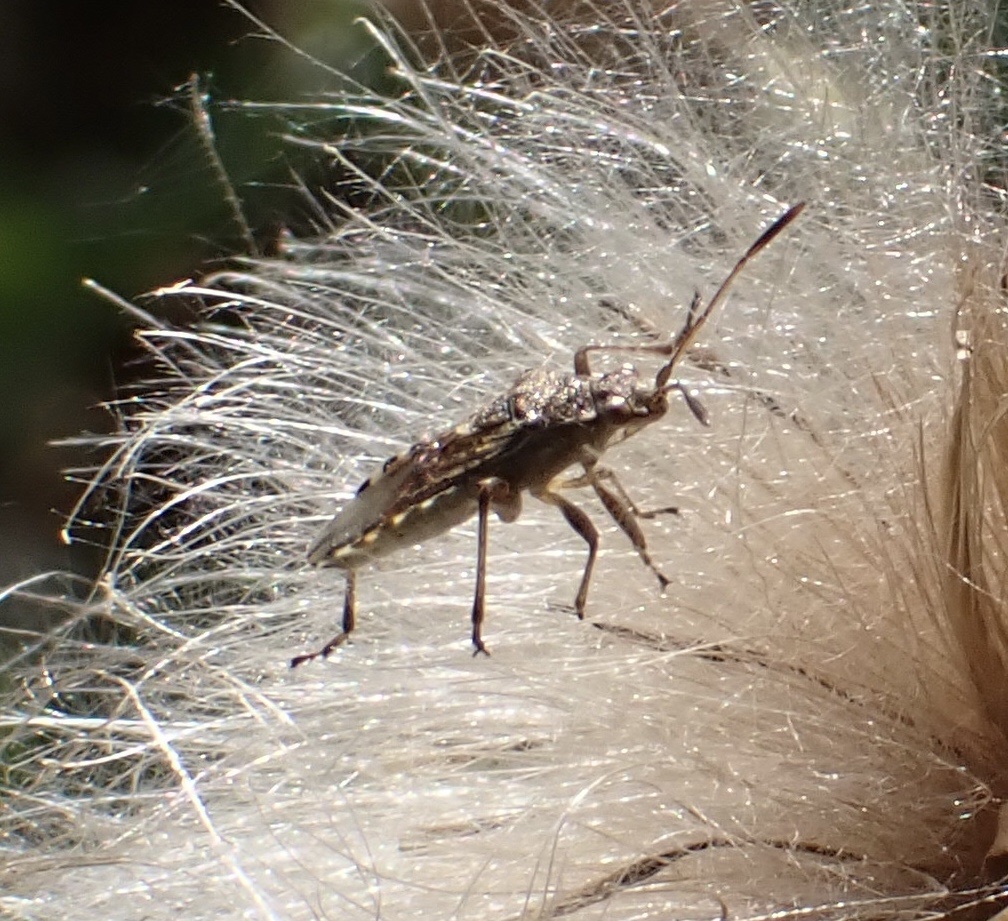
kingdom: Animalia
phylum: Arthropoda
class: Insecta
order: Hemiptera
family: Rhopalidae
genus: Stictopleurus
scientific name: Stictopleurus punctatonervosus
